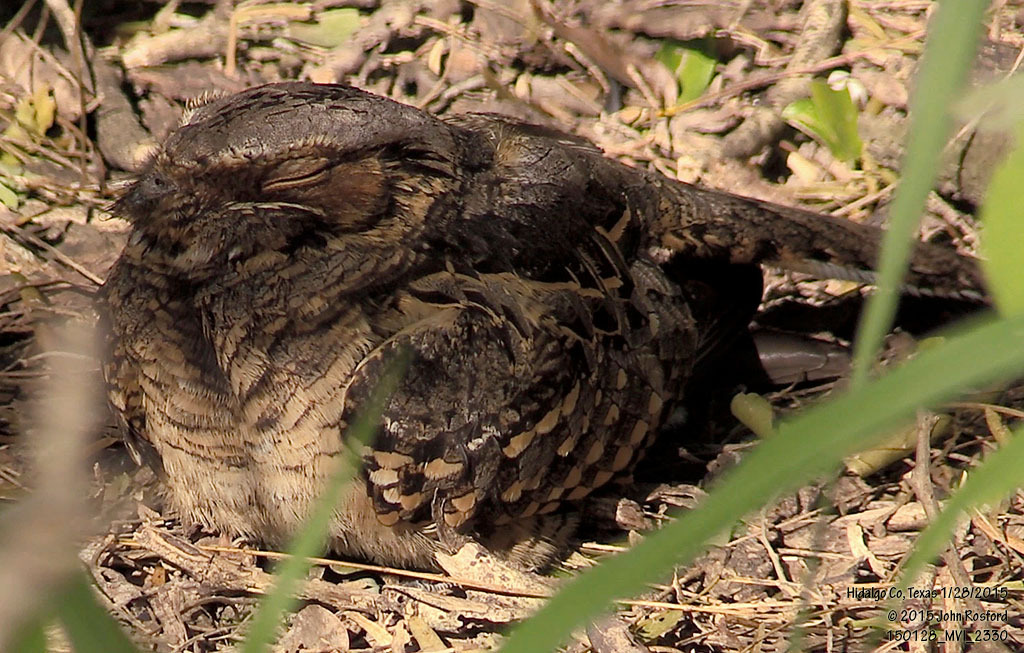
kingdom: Animalia
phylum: Chordata
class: Aves
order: Caprimulgiformes
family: Caprimulgidae
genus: Nyctidromus
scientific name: Nyctidromus albicollis
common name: Pauraque
